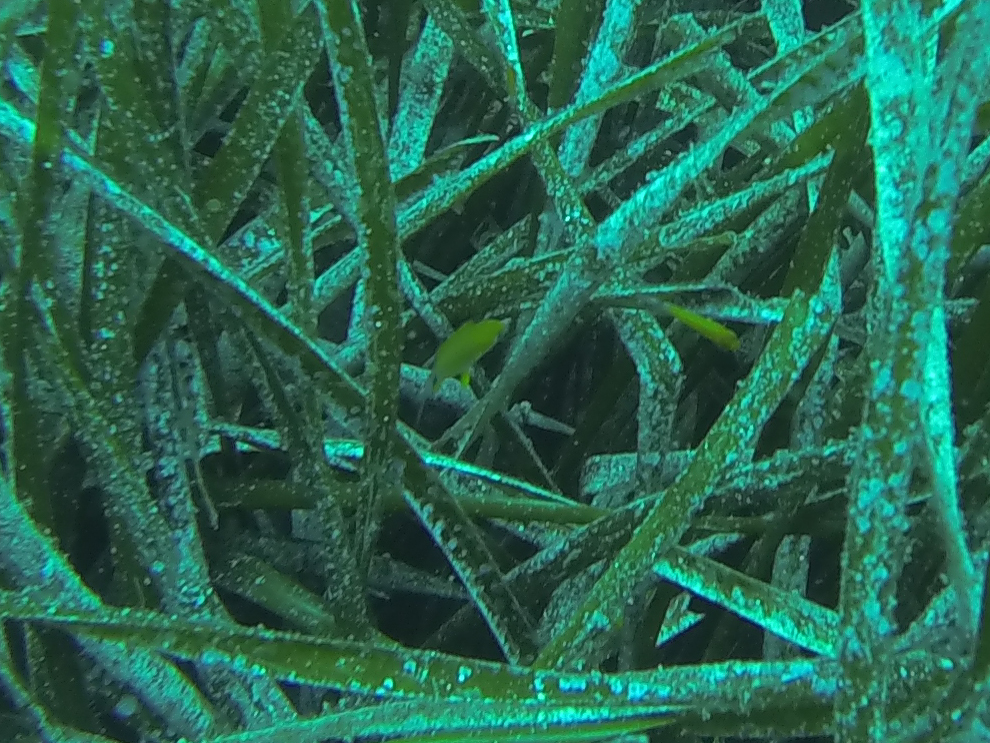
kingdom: Animalia
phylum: Chordata
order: Perciformes
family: Sparidae
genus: Diplodus
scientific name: Diplodus annularis
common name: Annular seabream
